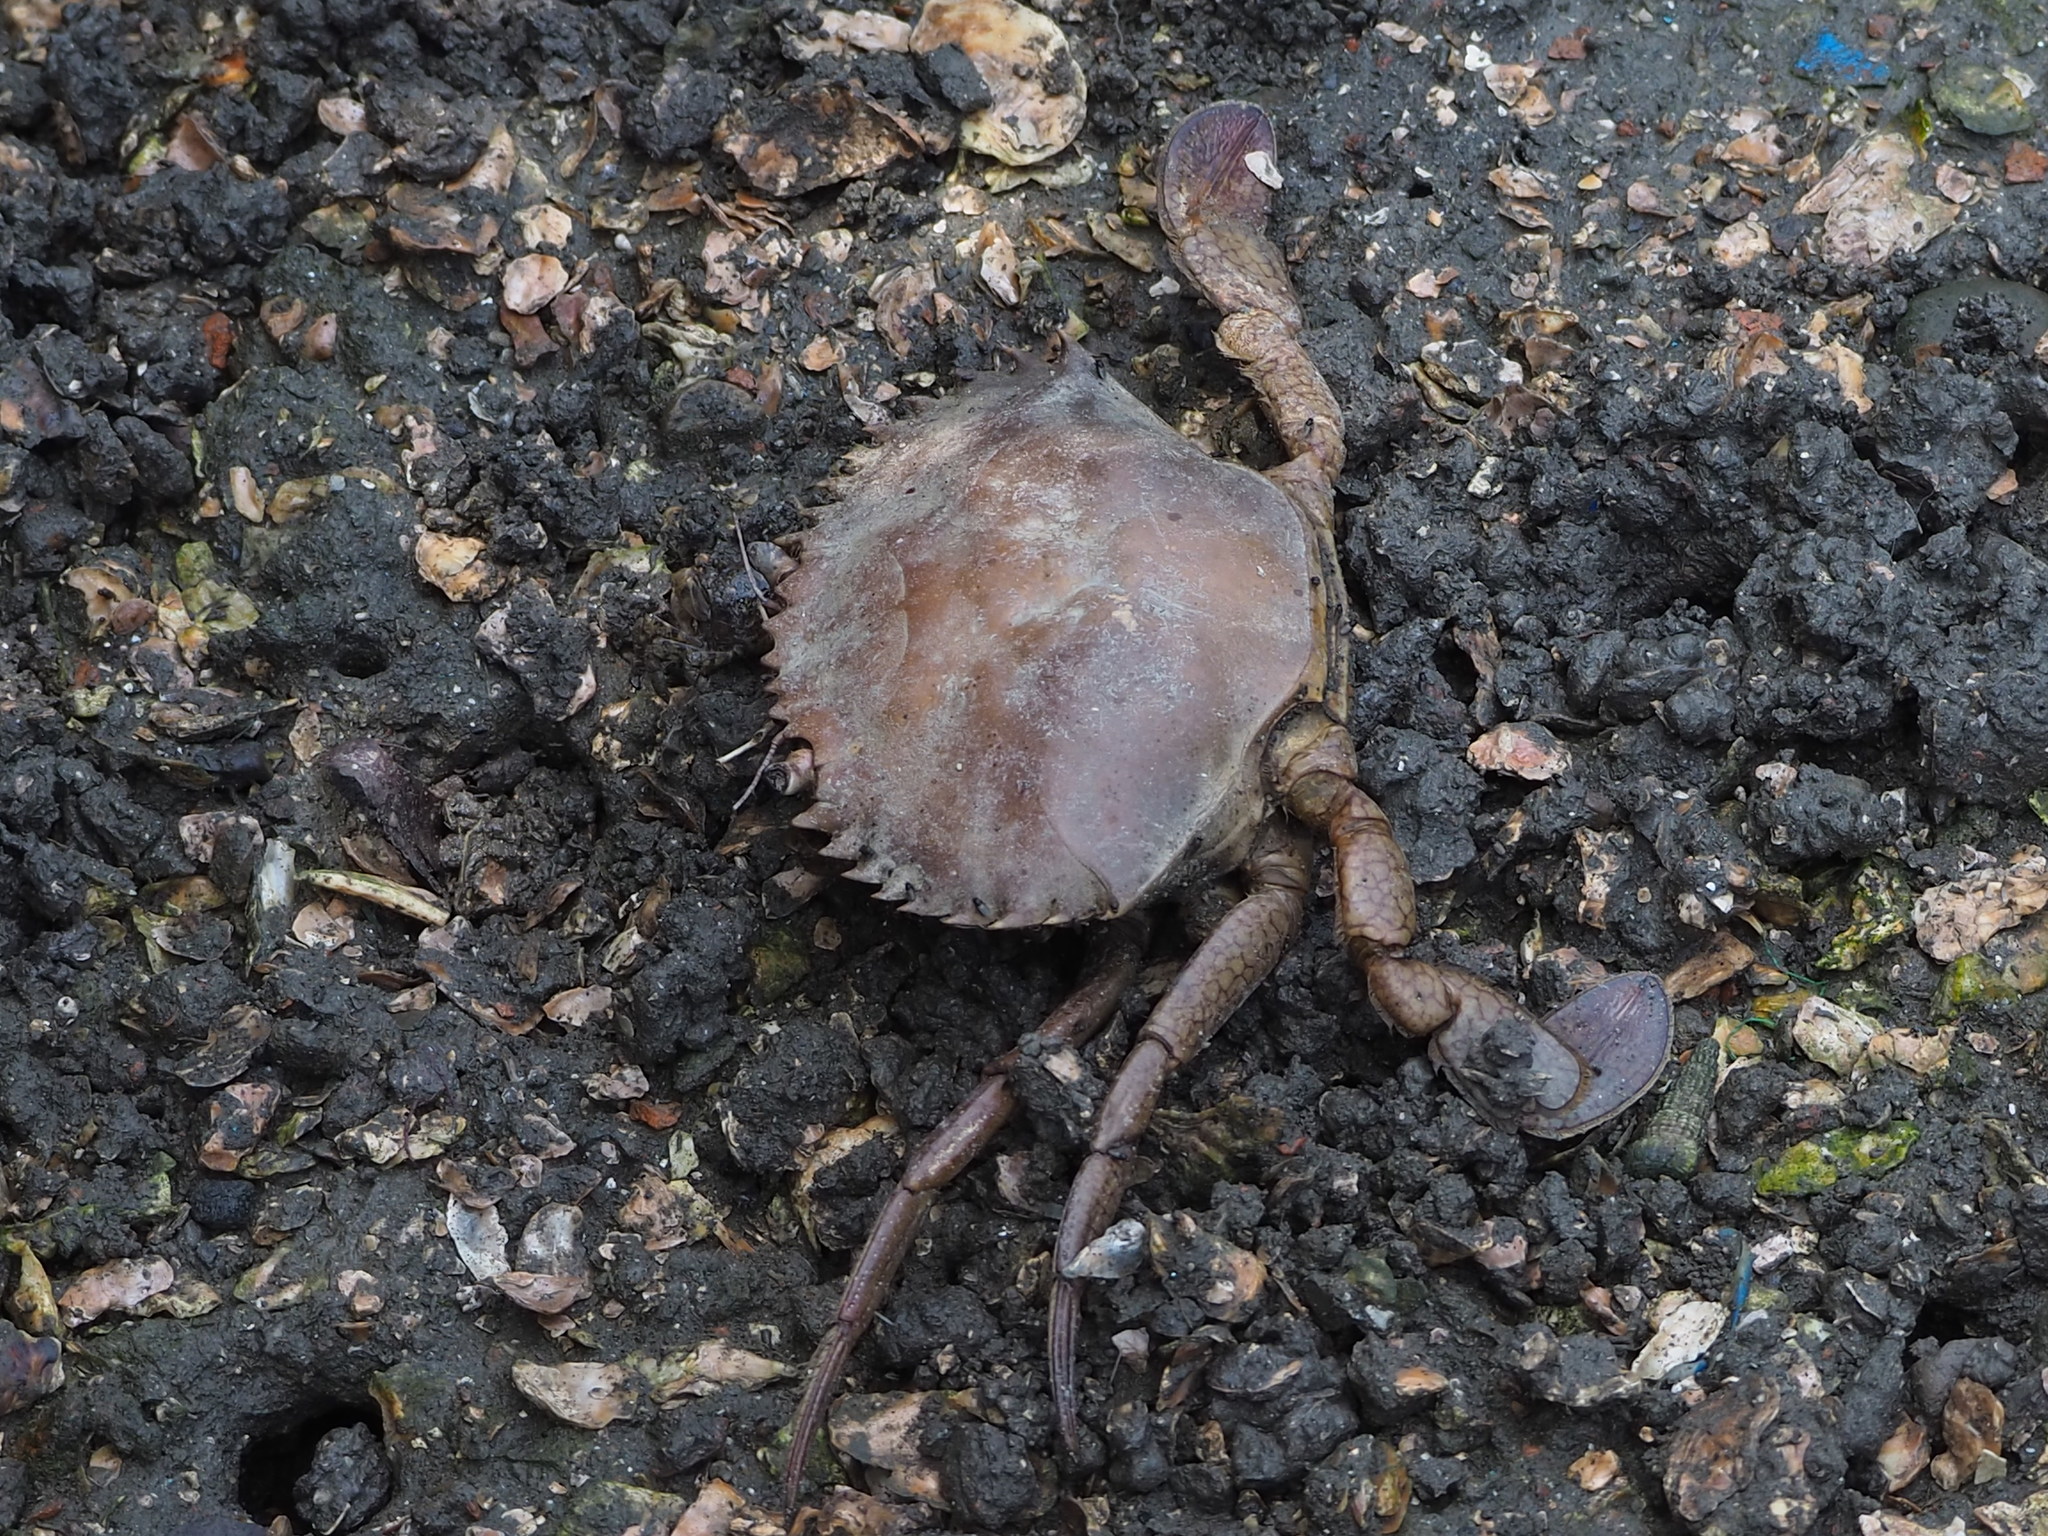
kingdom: Animalia
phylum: Arthropoda
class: Malacostraca
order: Decapoda
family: Portunidae
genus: Scylla
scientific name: Scylla serrata
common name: Giant mud crab
